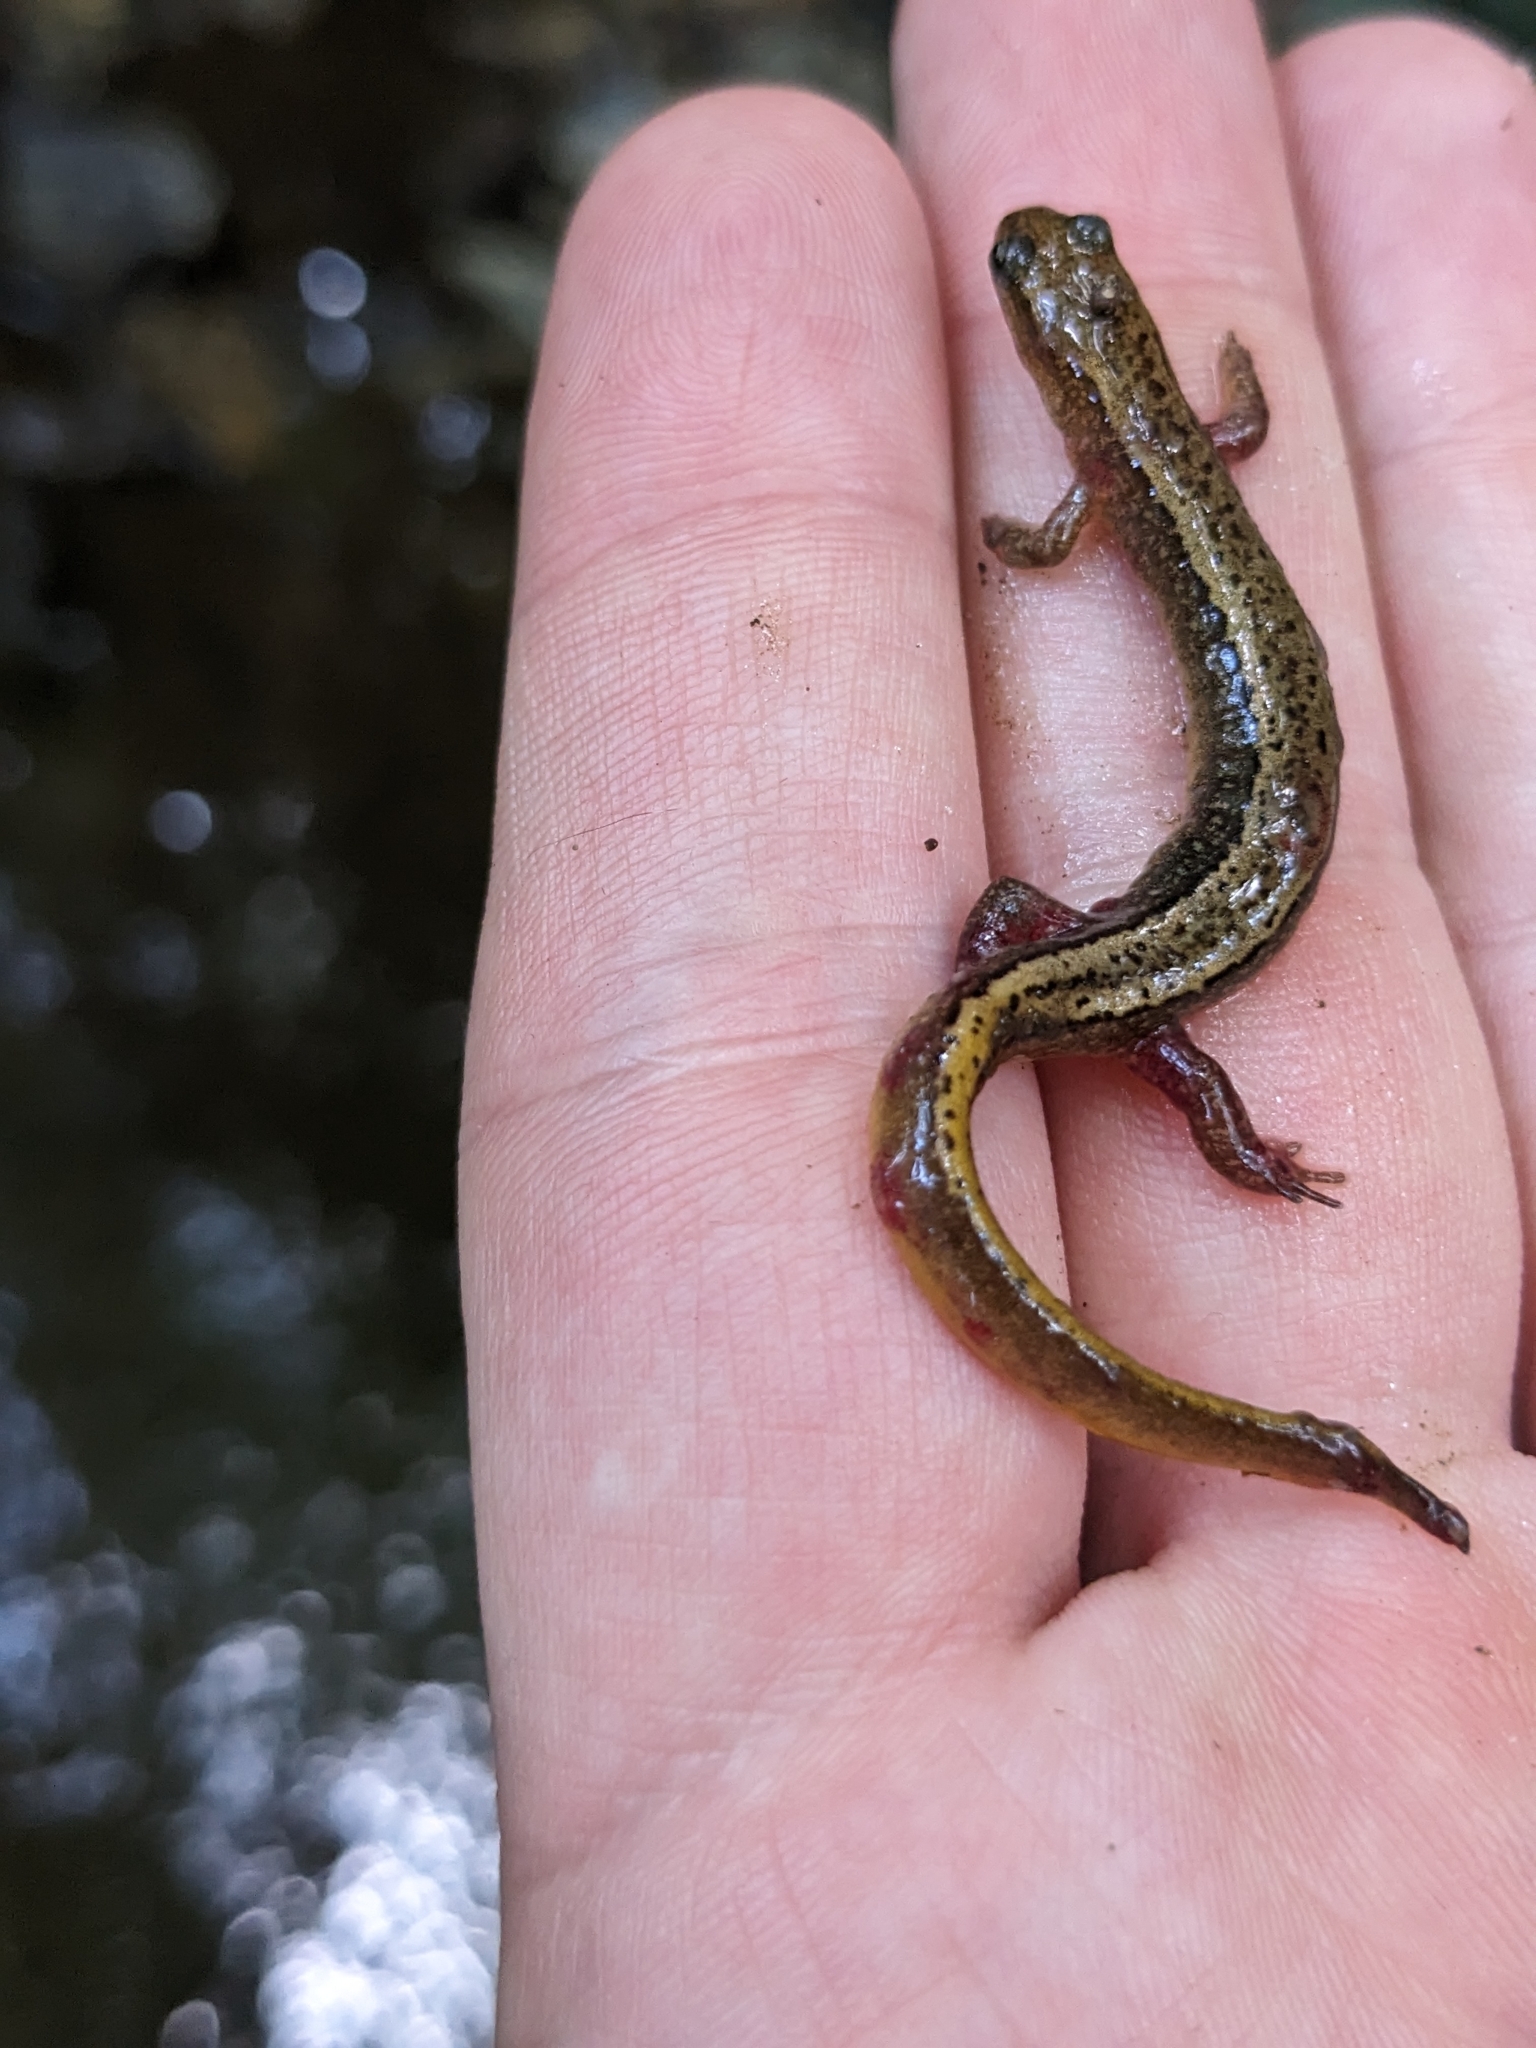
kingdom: Animalia
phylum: Chordata
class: Amphibia
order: Caudata
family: Plethodontidae
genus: Eurycea
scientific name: Eurycea bislineata
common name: Northern two-lined salamander
